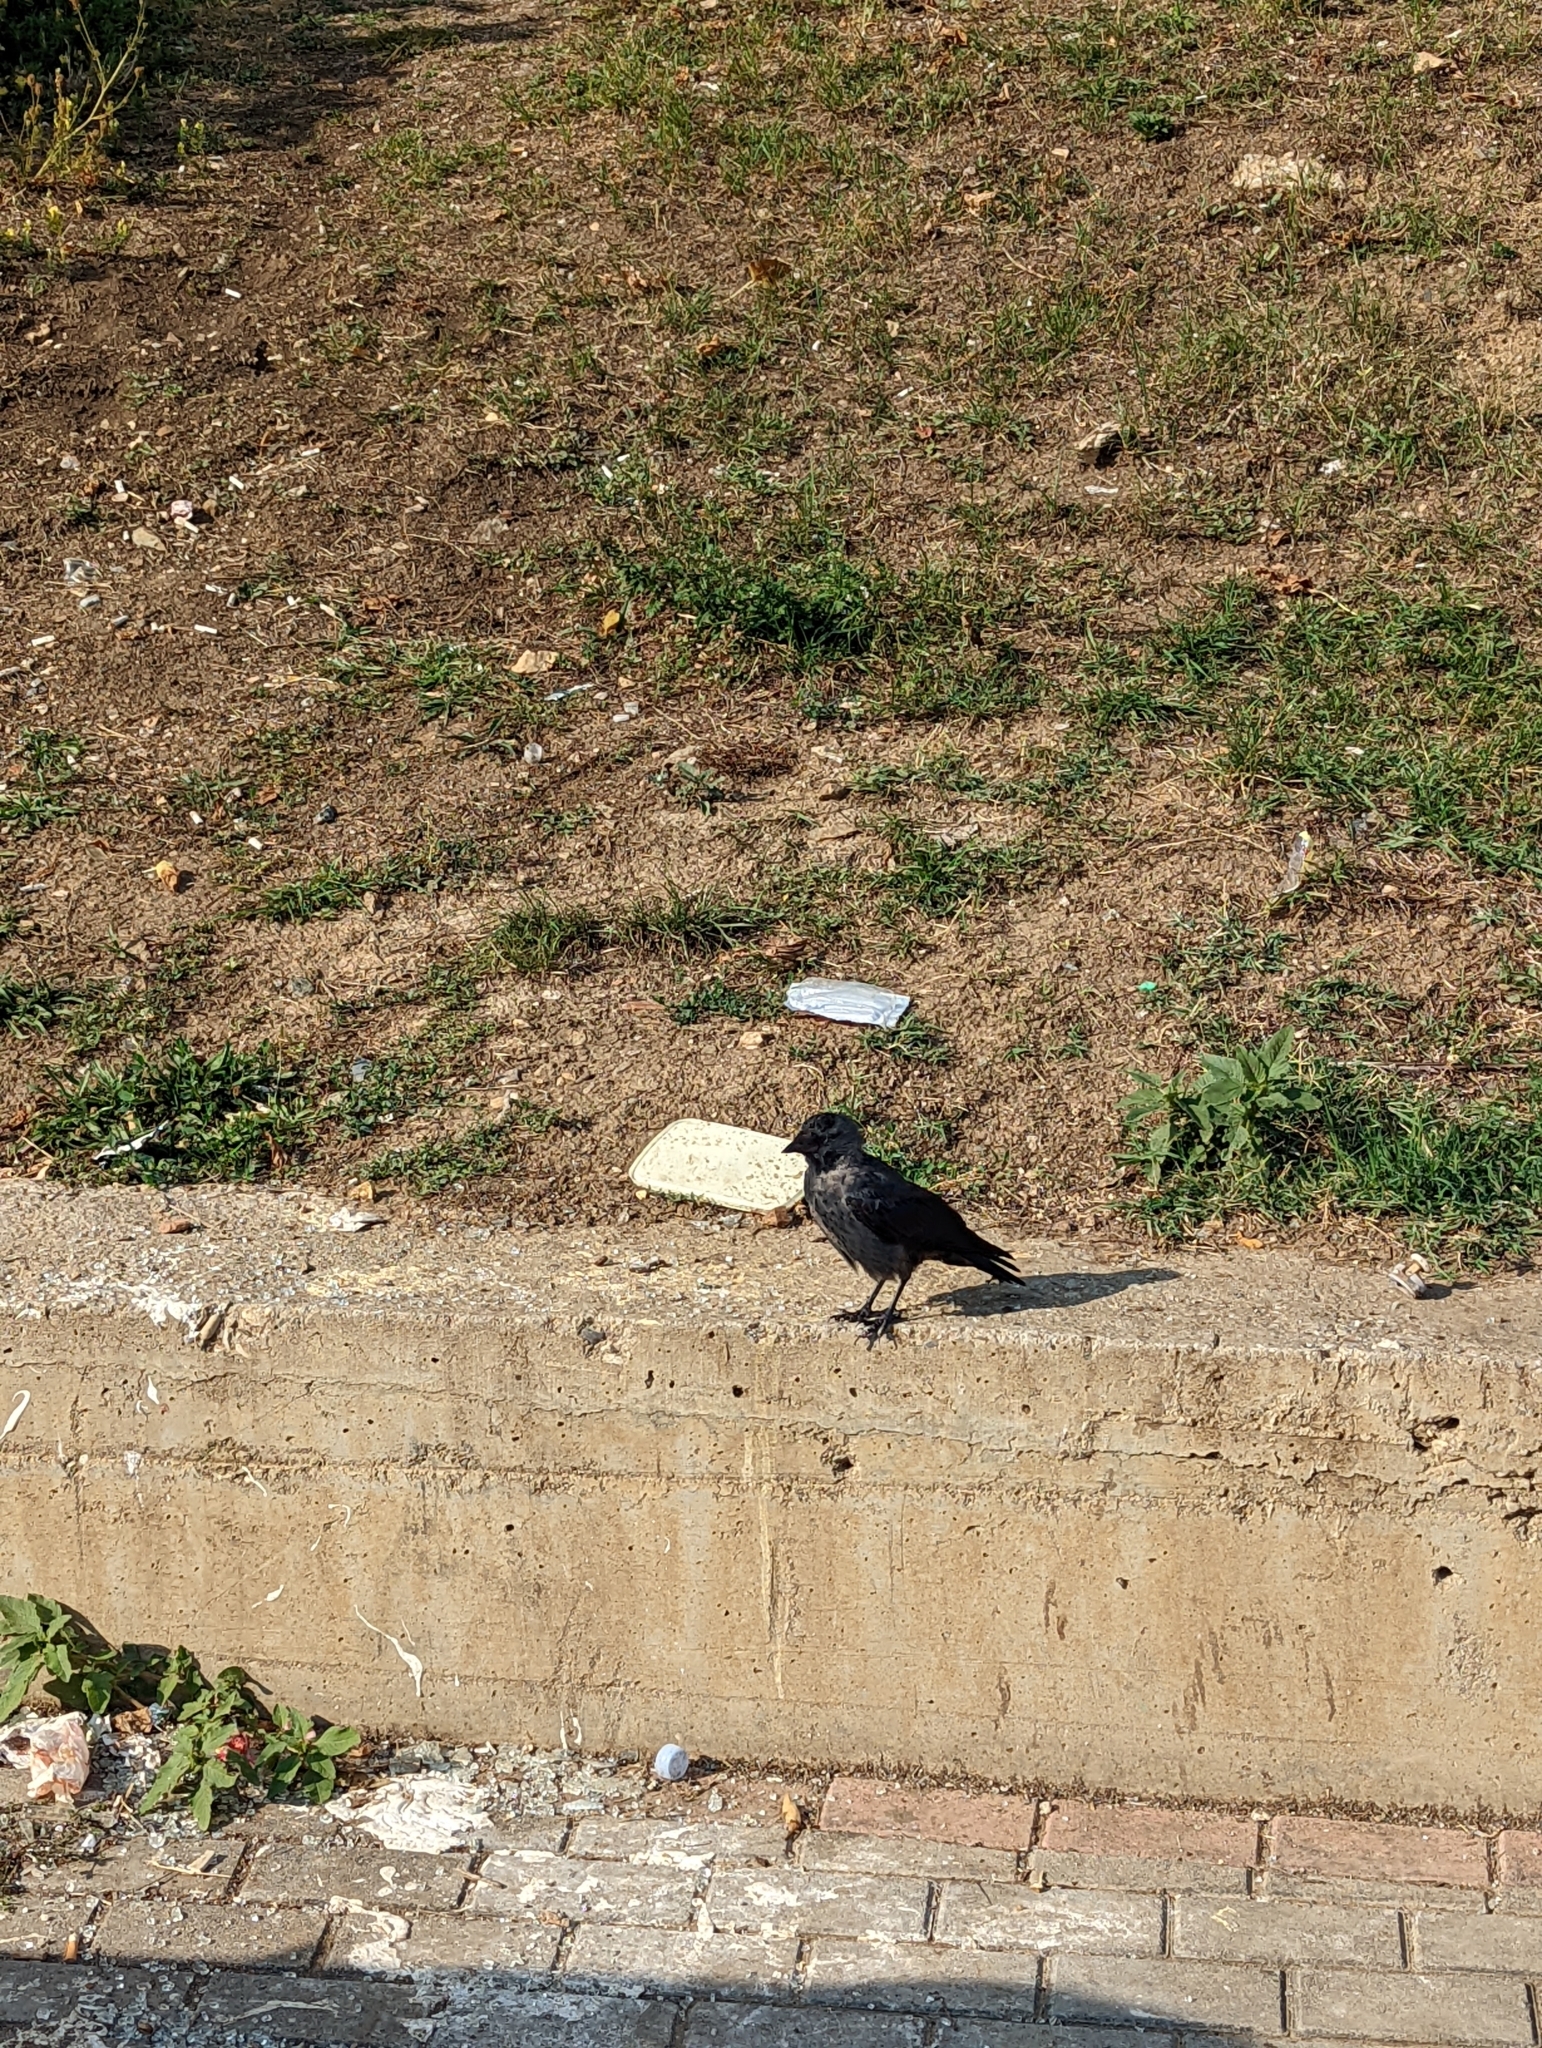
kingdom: Animalia
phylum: Chordata
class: Aves
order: Passeriformes
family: Corvidae
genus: Coloeus
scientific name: Coloeus monedula
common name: Western jackdaw
